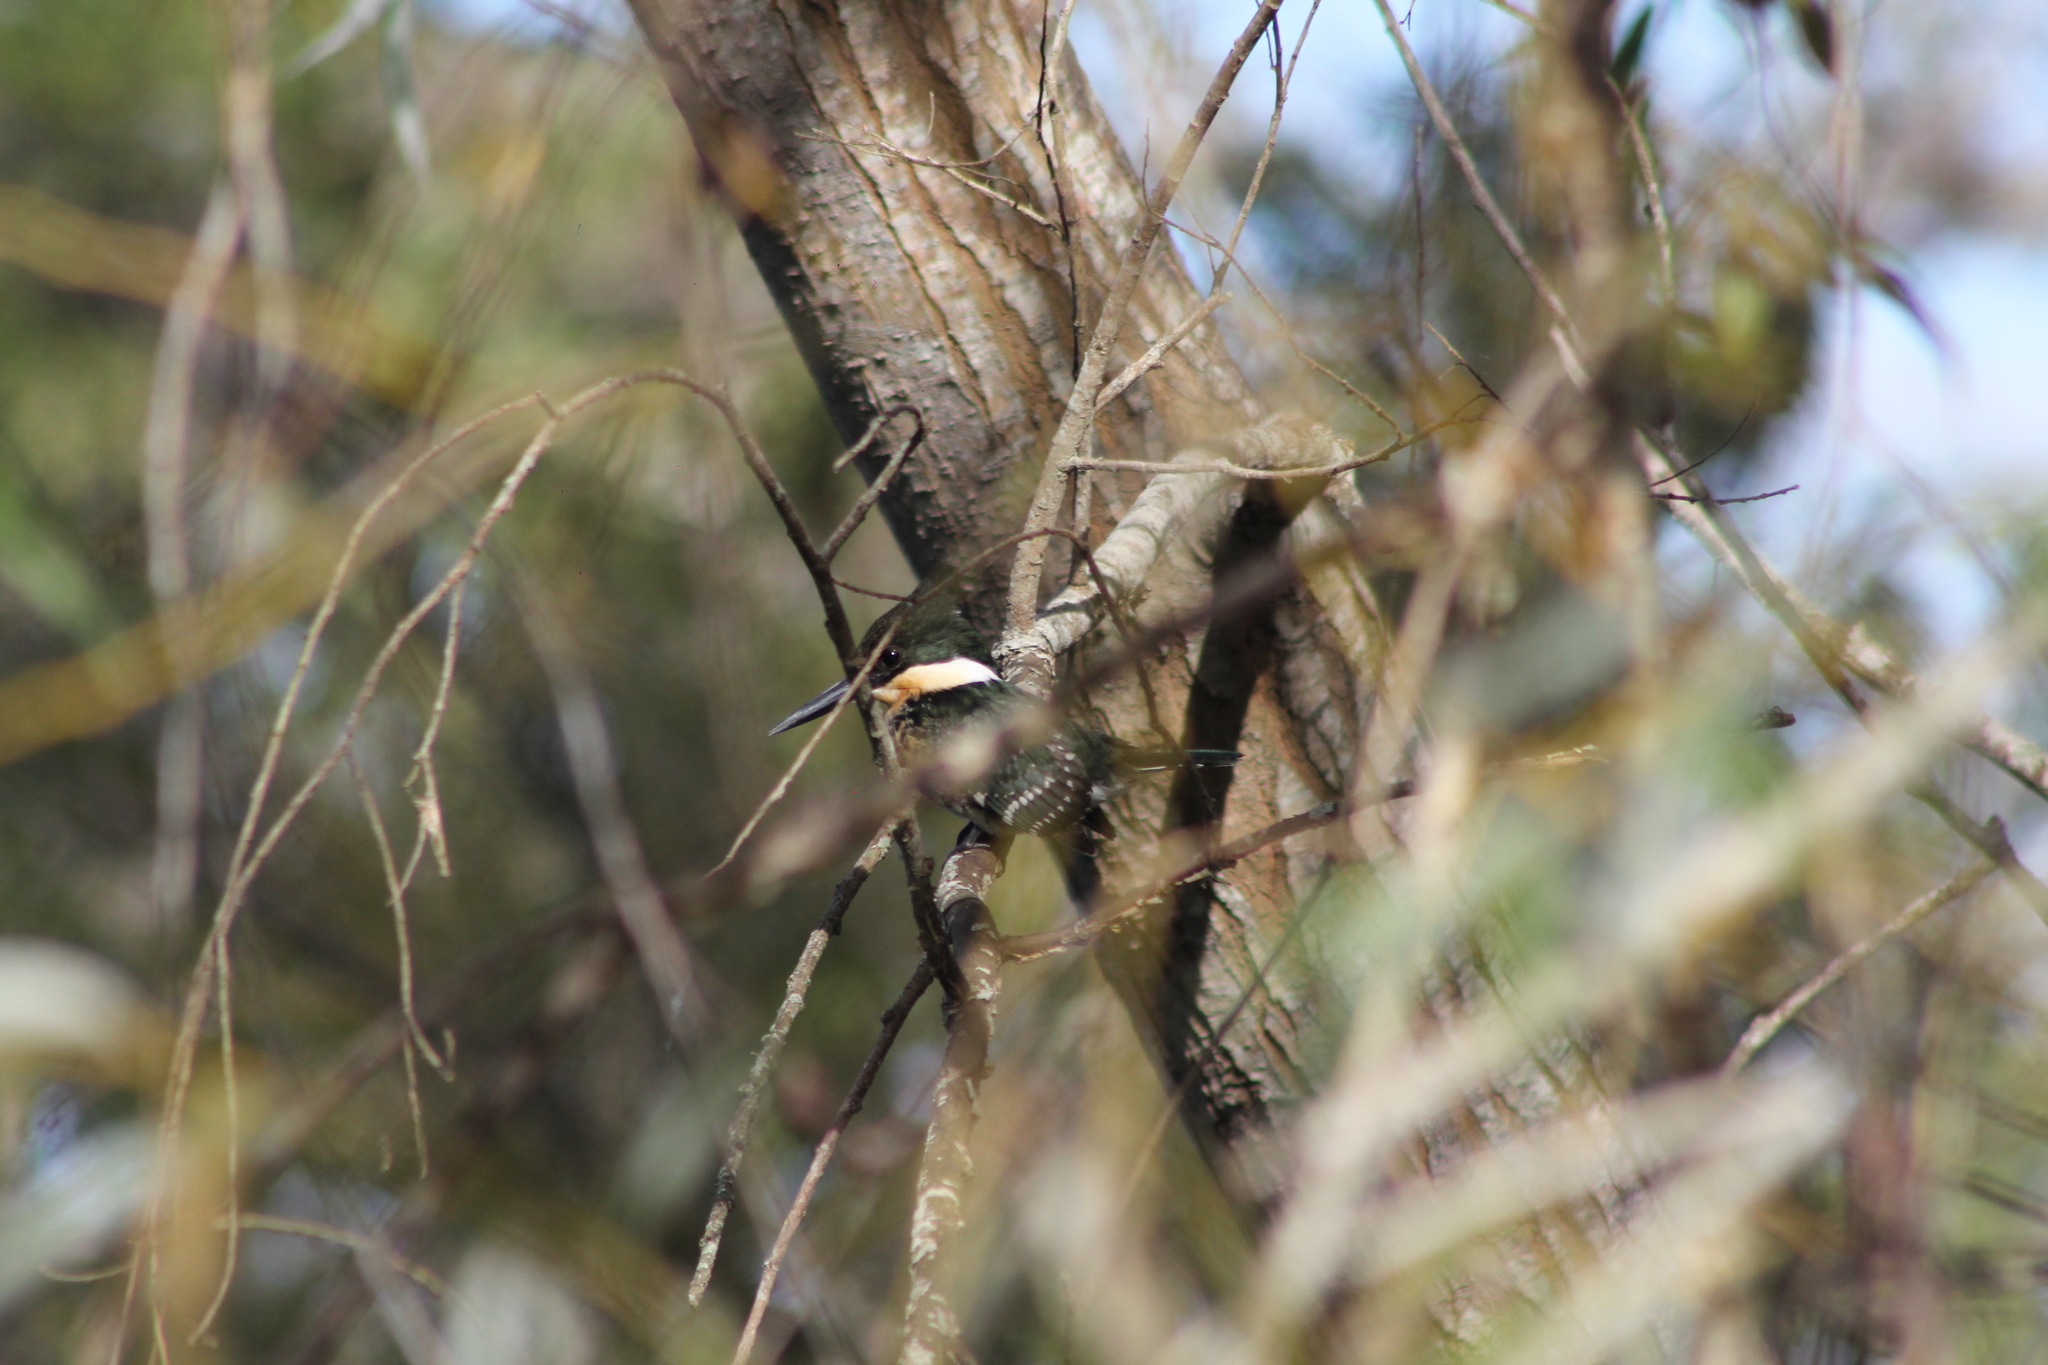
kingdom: Animalia
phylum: Chordata
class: Aves
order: Coraciiformes
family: Alcedinidae
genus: Chloroceryle
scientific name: Chloroceryle americana
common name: Green kingfisher
